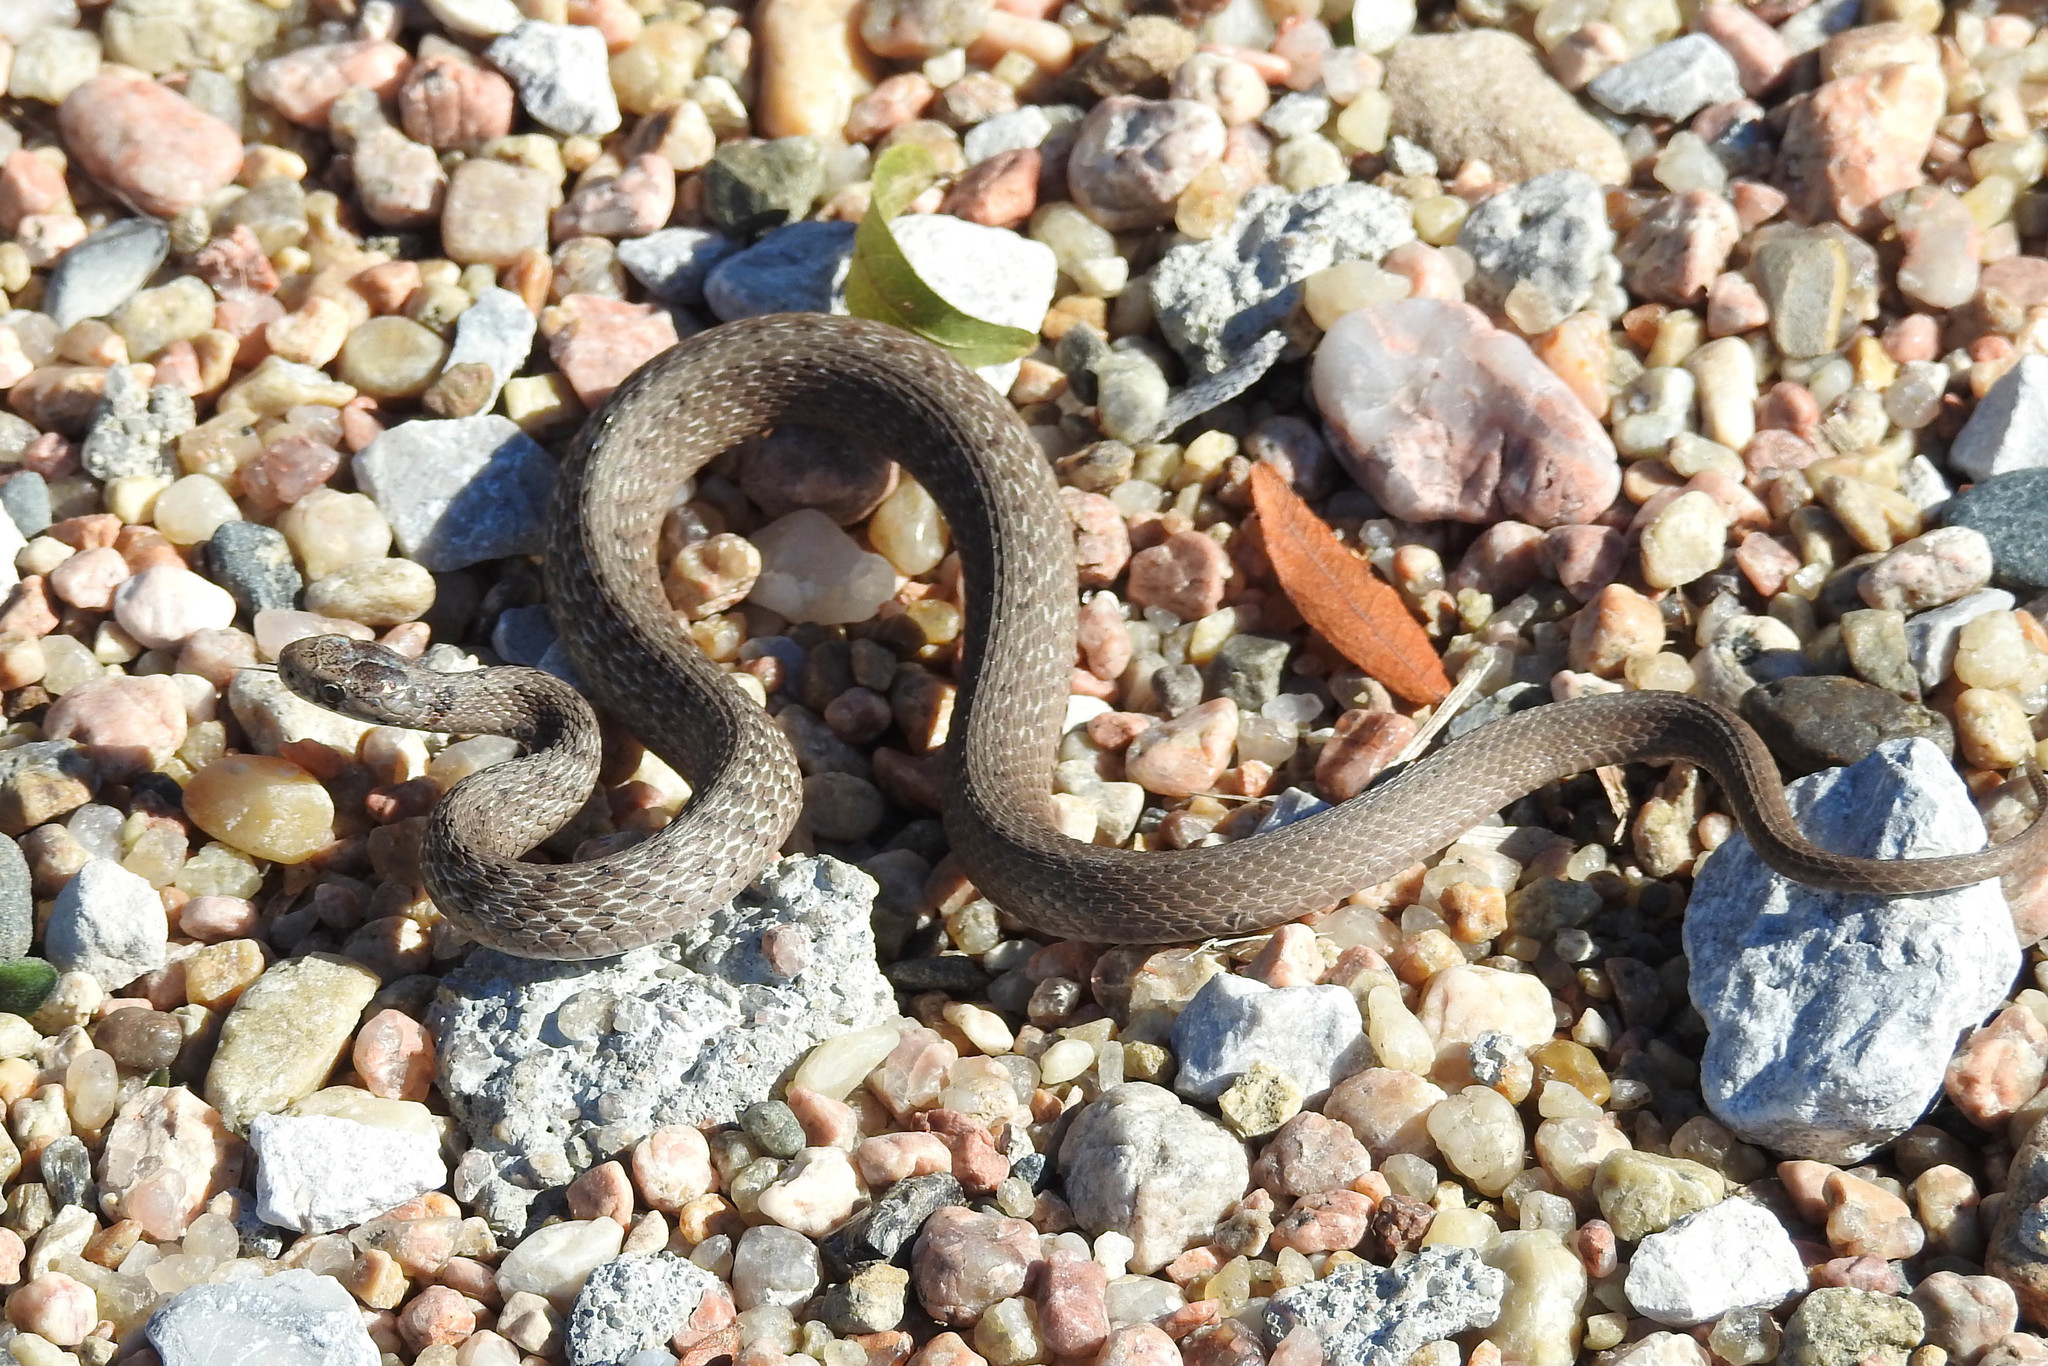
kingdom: Animalia
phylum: Chordata
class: Squamata
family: Colubridae
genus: Storeria
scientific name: Storeria dekayi
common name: (dekay’s) brown snake
